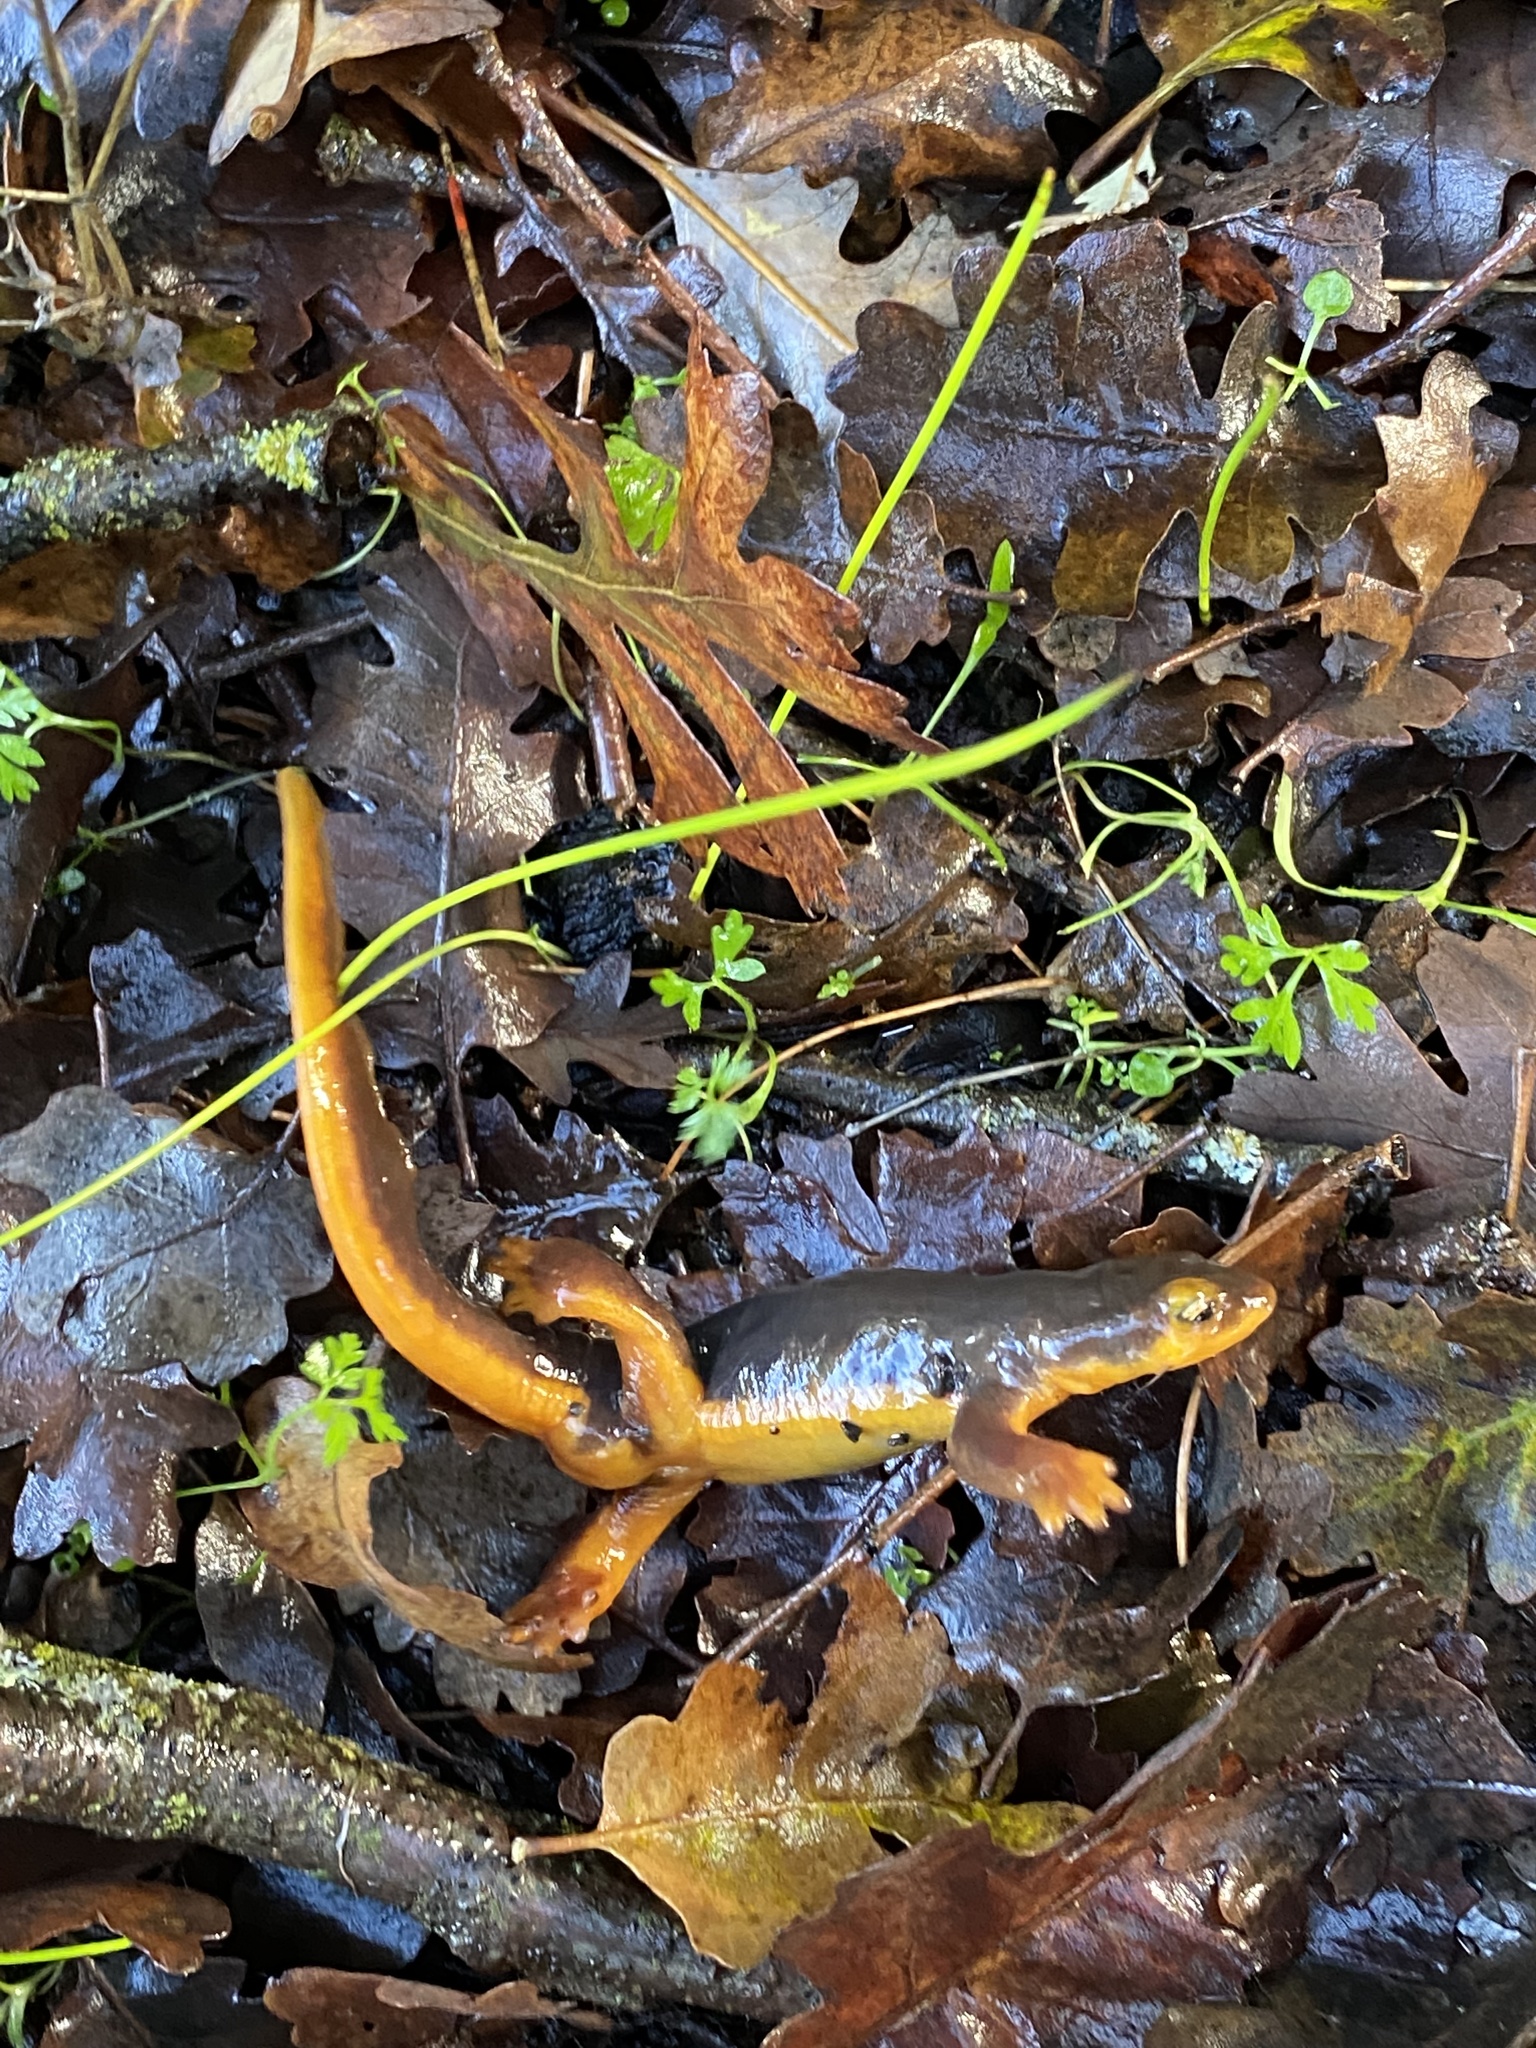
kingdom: Animalia
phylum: Chordata
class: Amphibia
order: Caudata
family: Salamandridae
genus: Taricha
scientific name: Taricha torosa
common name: California newt
